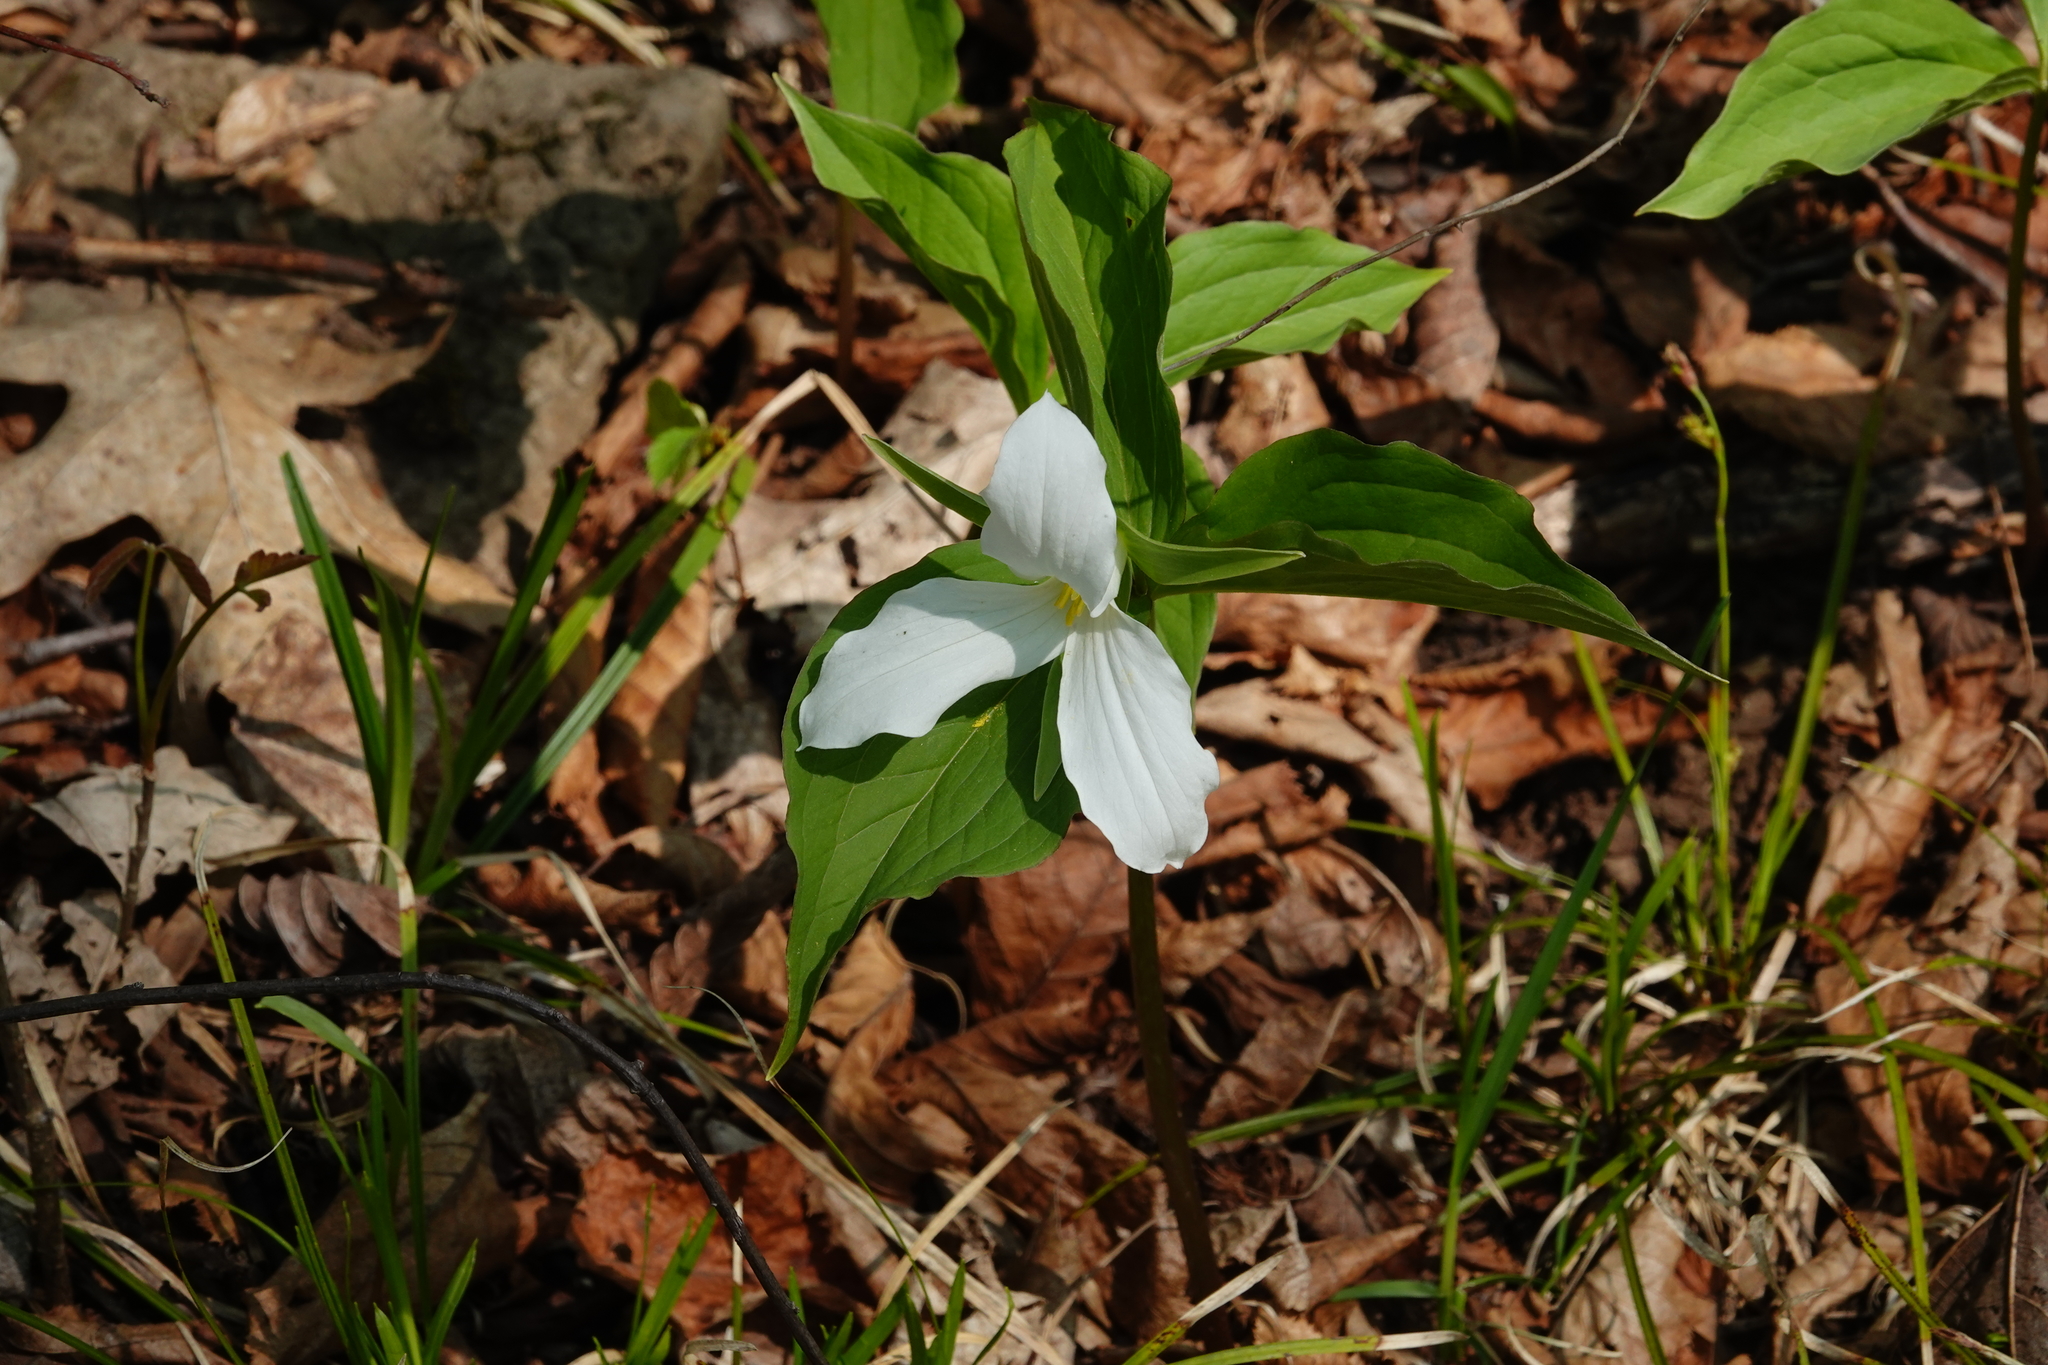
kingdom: Plantae
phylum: Tracheophyta
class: Liliopsida
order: Liliales
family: Melanthiaceae
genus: Trillium
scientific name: Trillium grandiflorum
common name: Great white trillium
